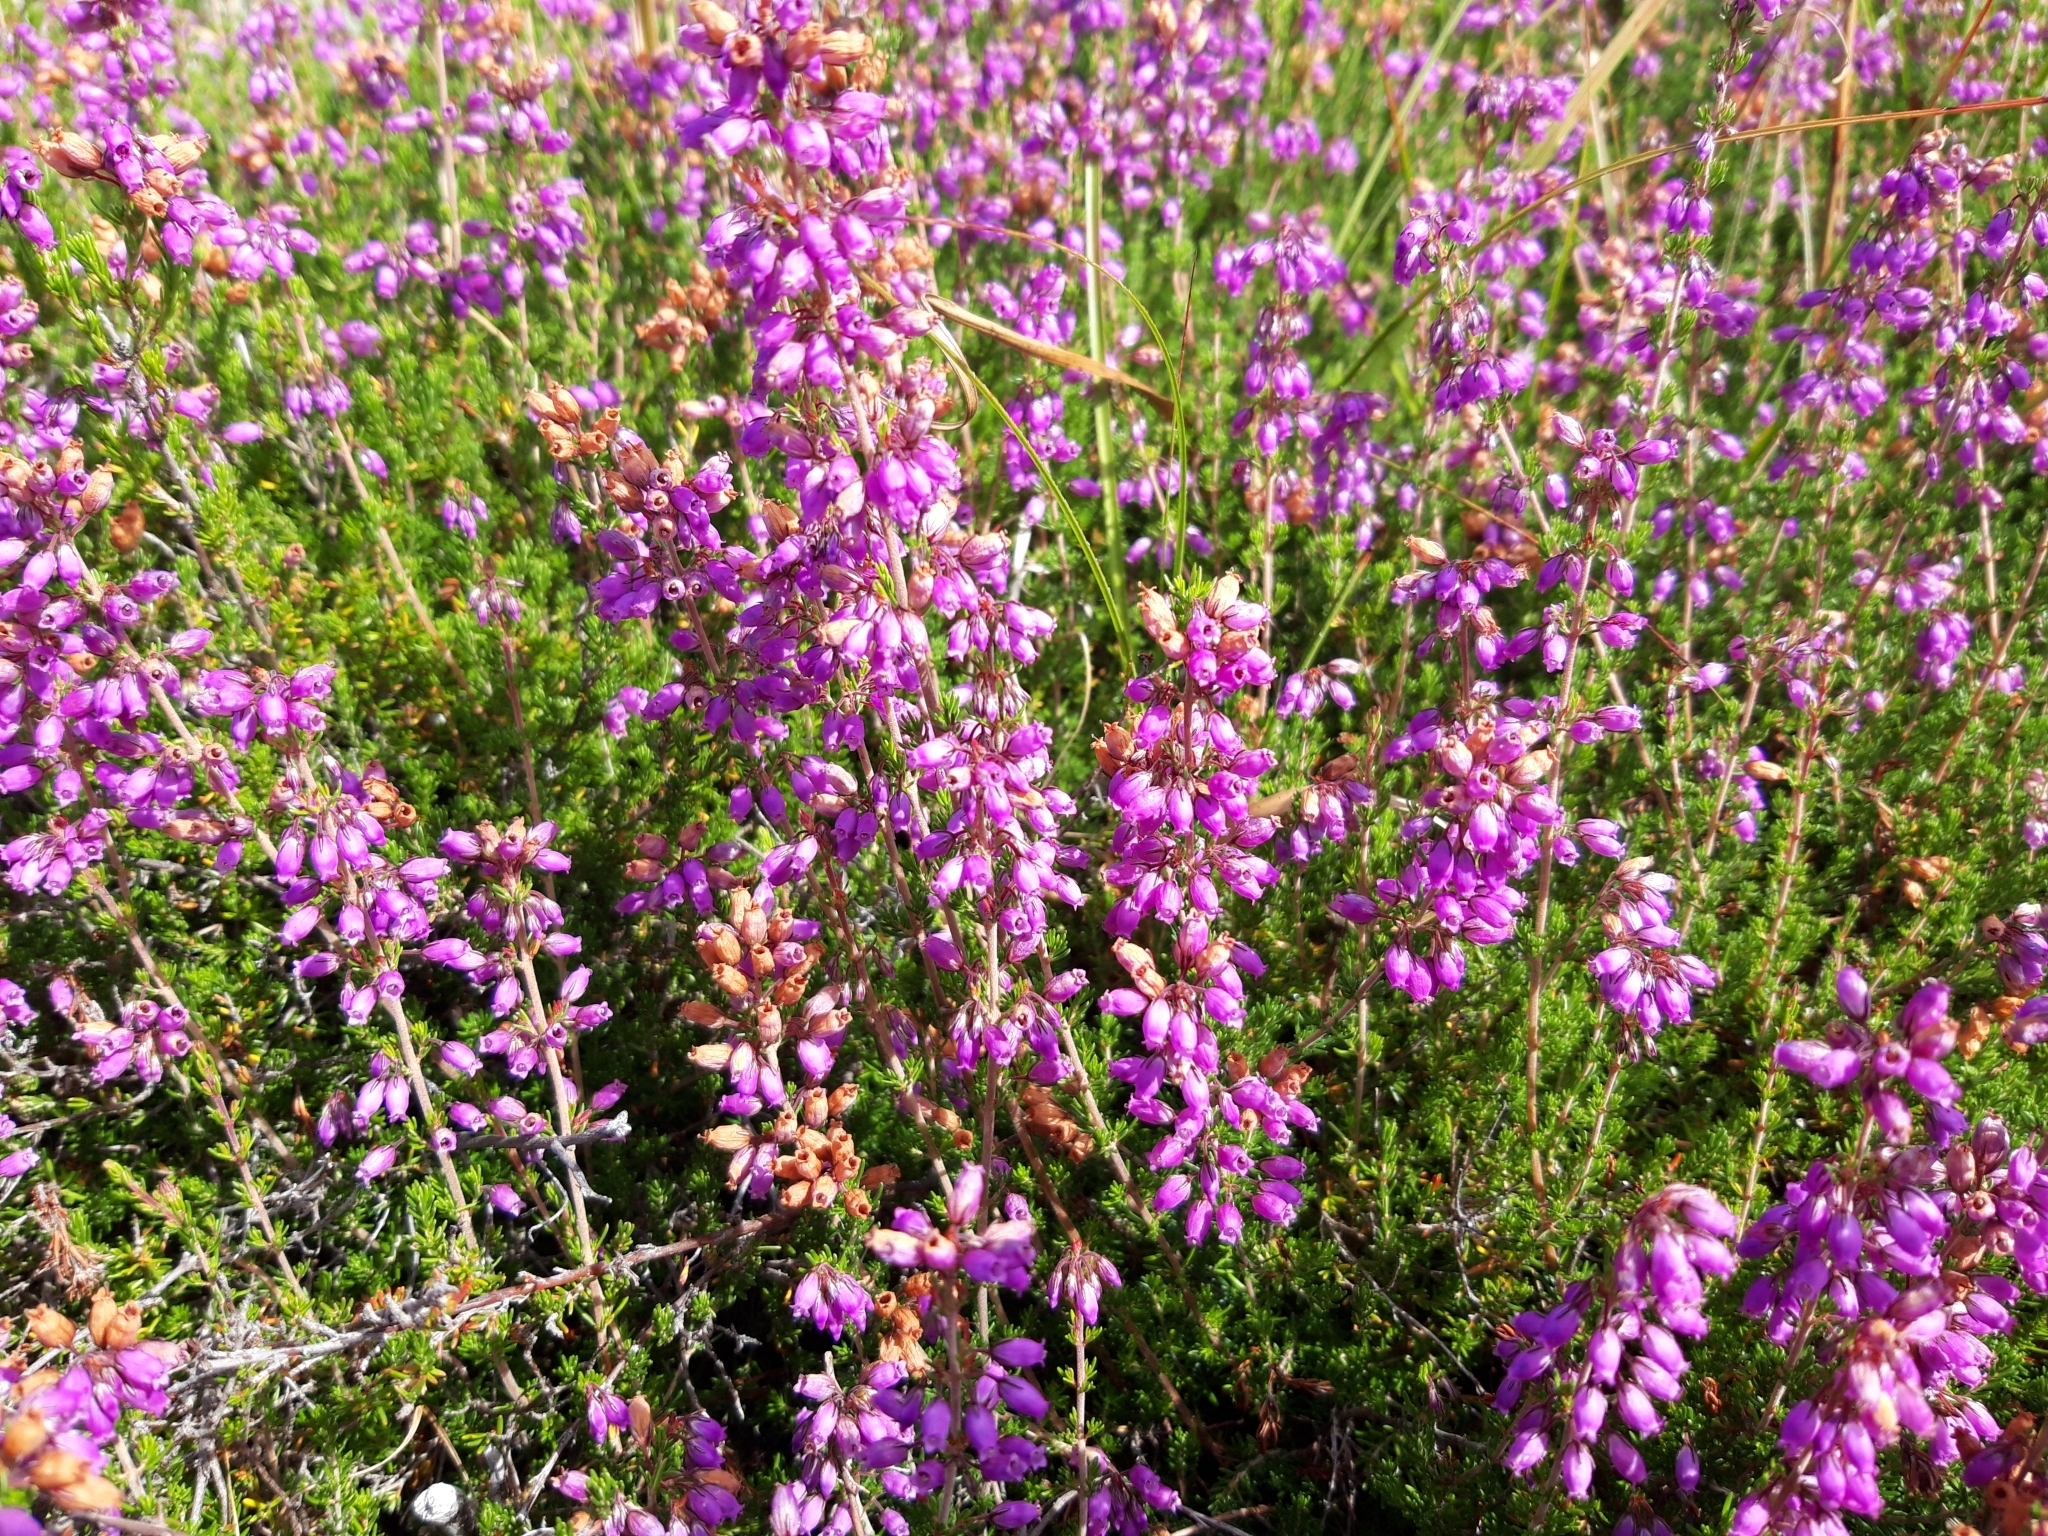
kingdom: Plantae
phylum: Tracheophyta
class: Magnoliopsida
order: Ericales
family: Ericaceae
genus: Erica
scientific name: Erica cinerea
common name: Bell heather
